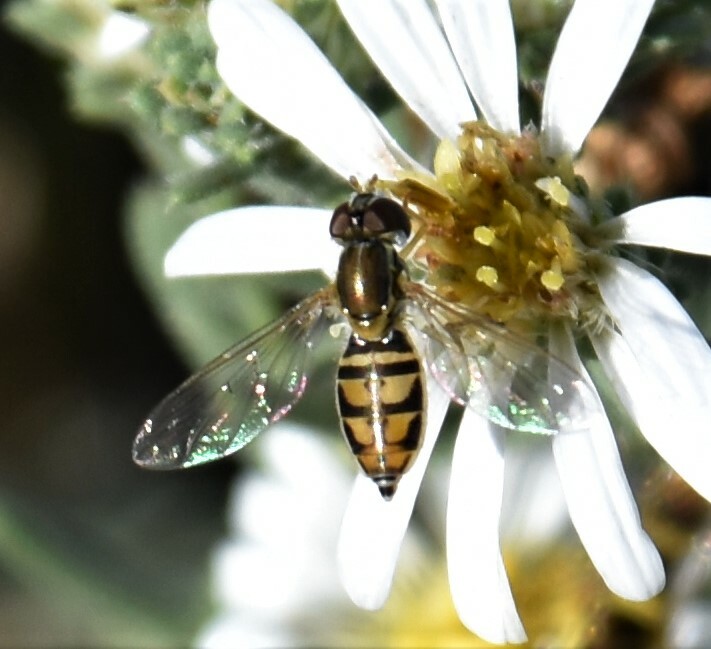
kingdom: Animalia
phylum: Arthropoda
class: Insecta
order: Diptera
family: Syrphidae
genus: Toxomerus
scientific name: Toxomerus marginatus
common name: Syrphid fly
